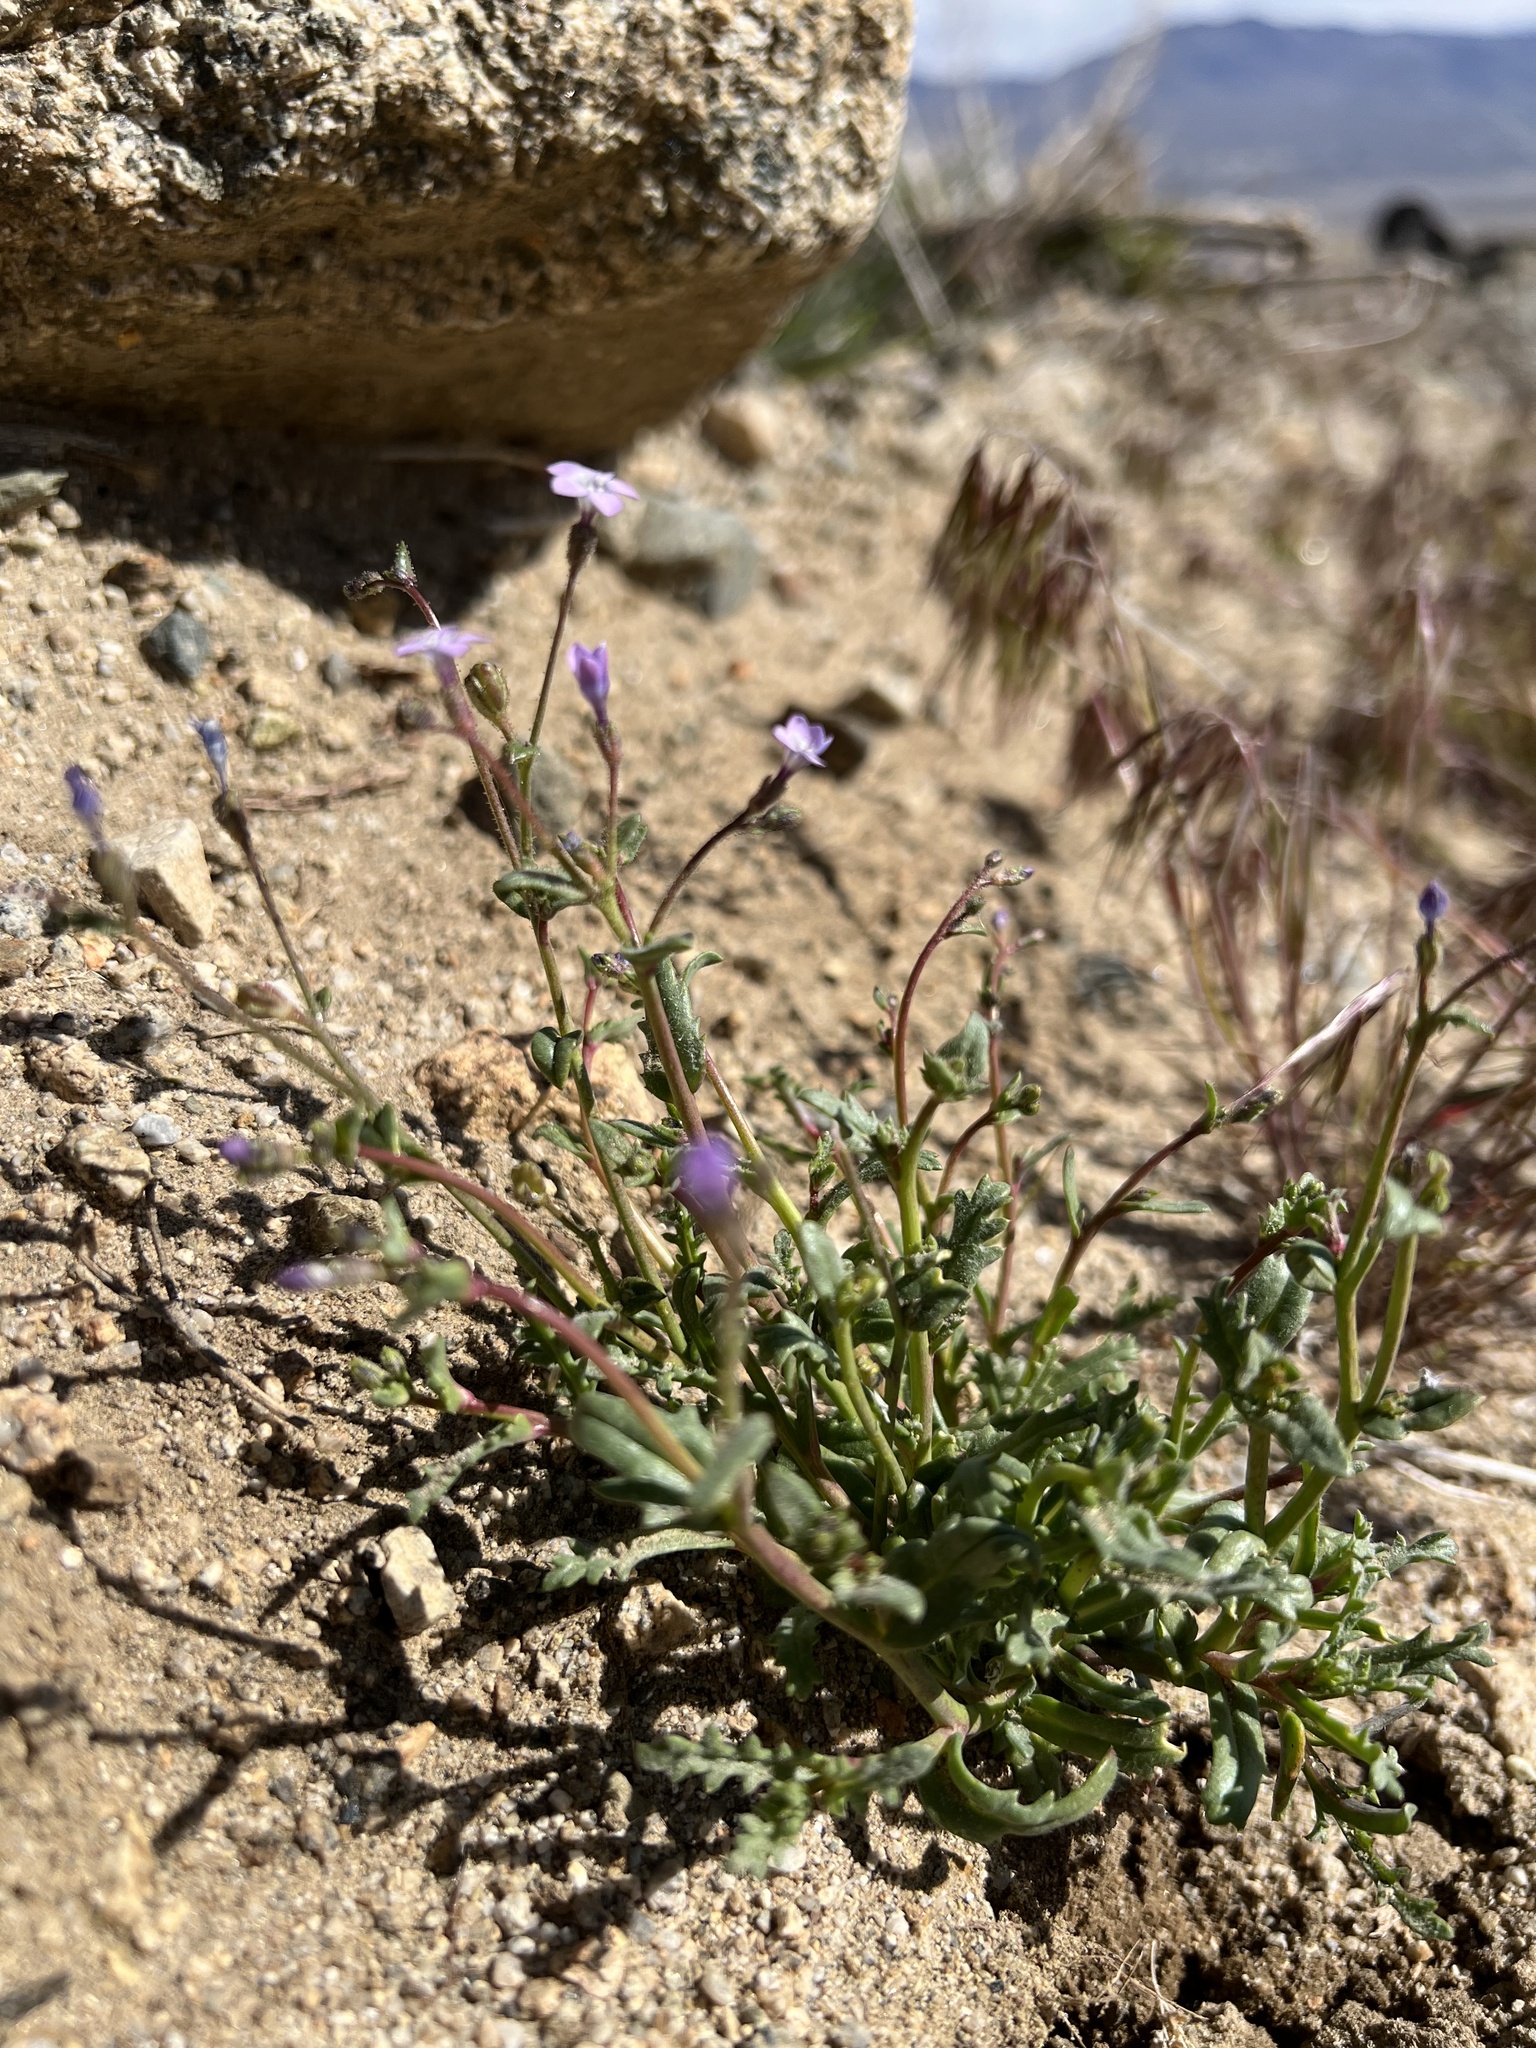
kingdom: Plantae
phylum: Tracheophyta
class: Magnoliopsida
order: Ericales
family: Polemoniaceae
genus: Gilia
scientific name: Gilia sinuata
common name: Rosy gilia
